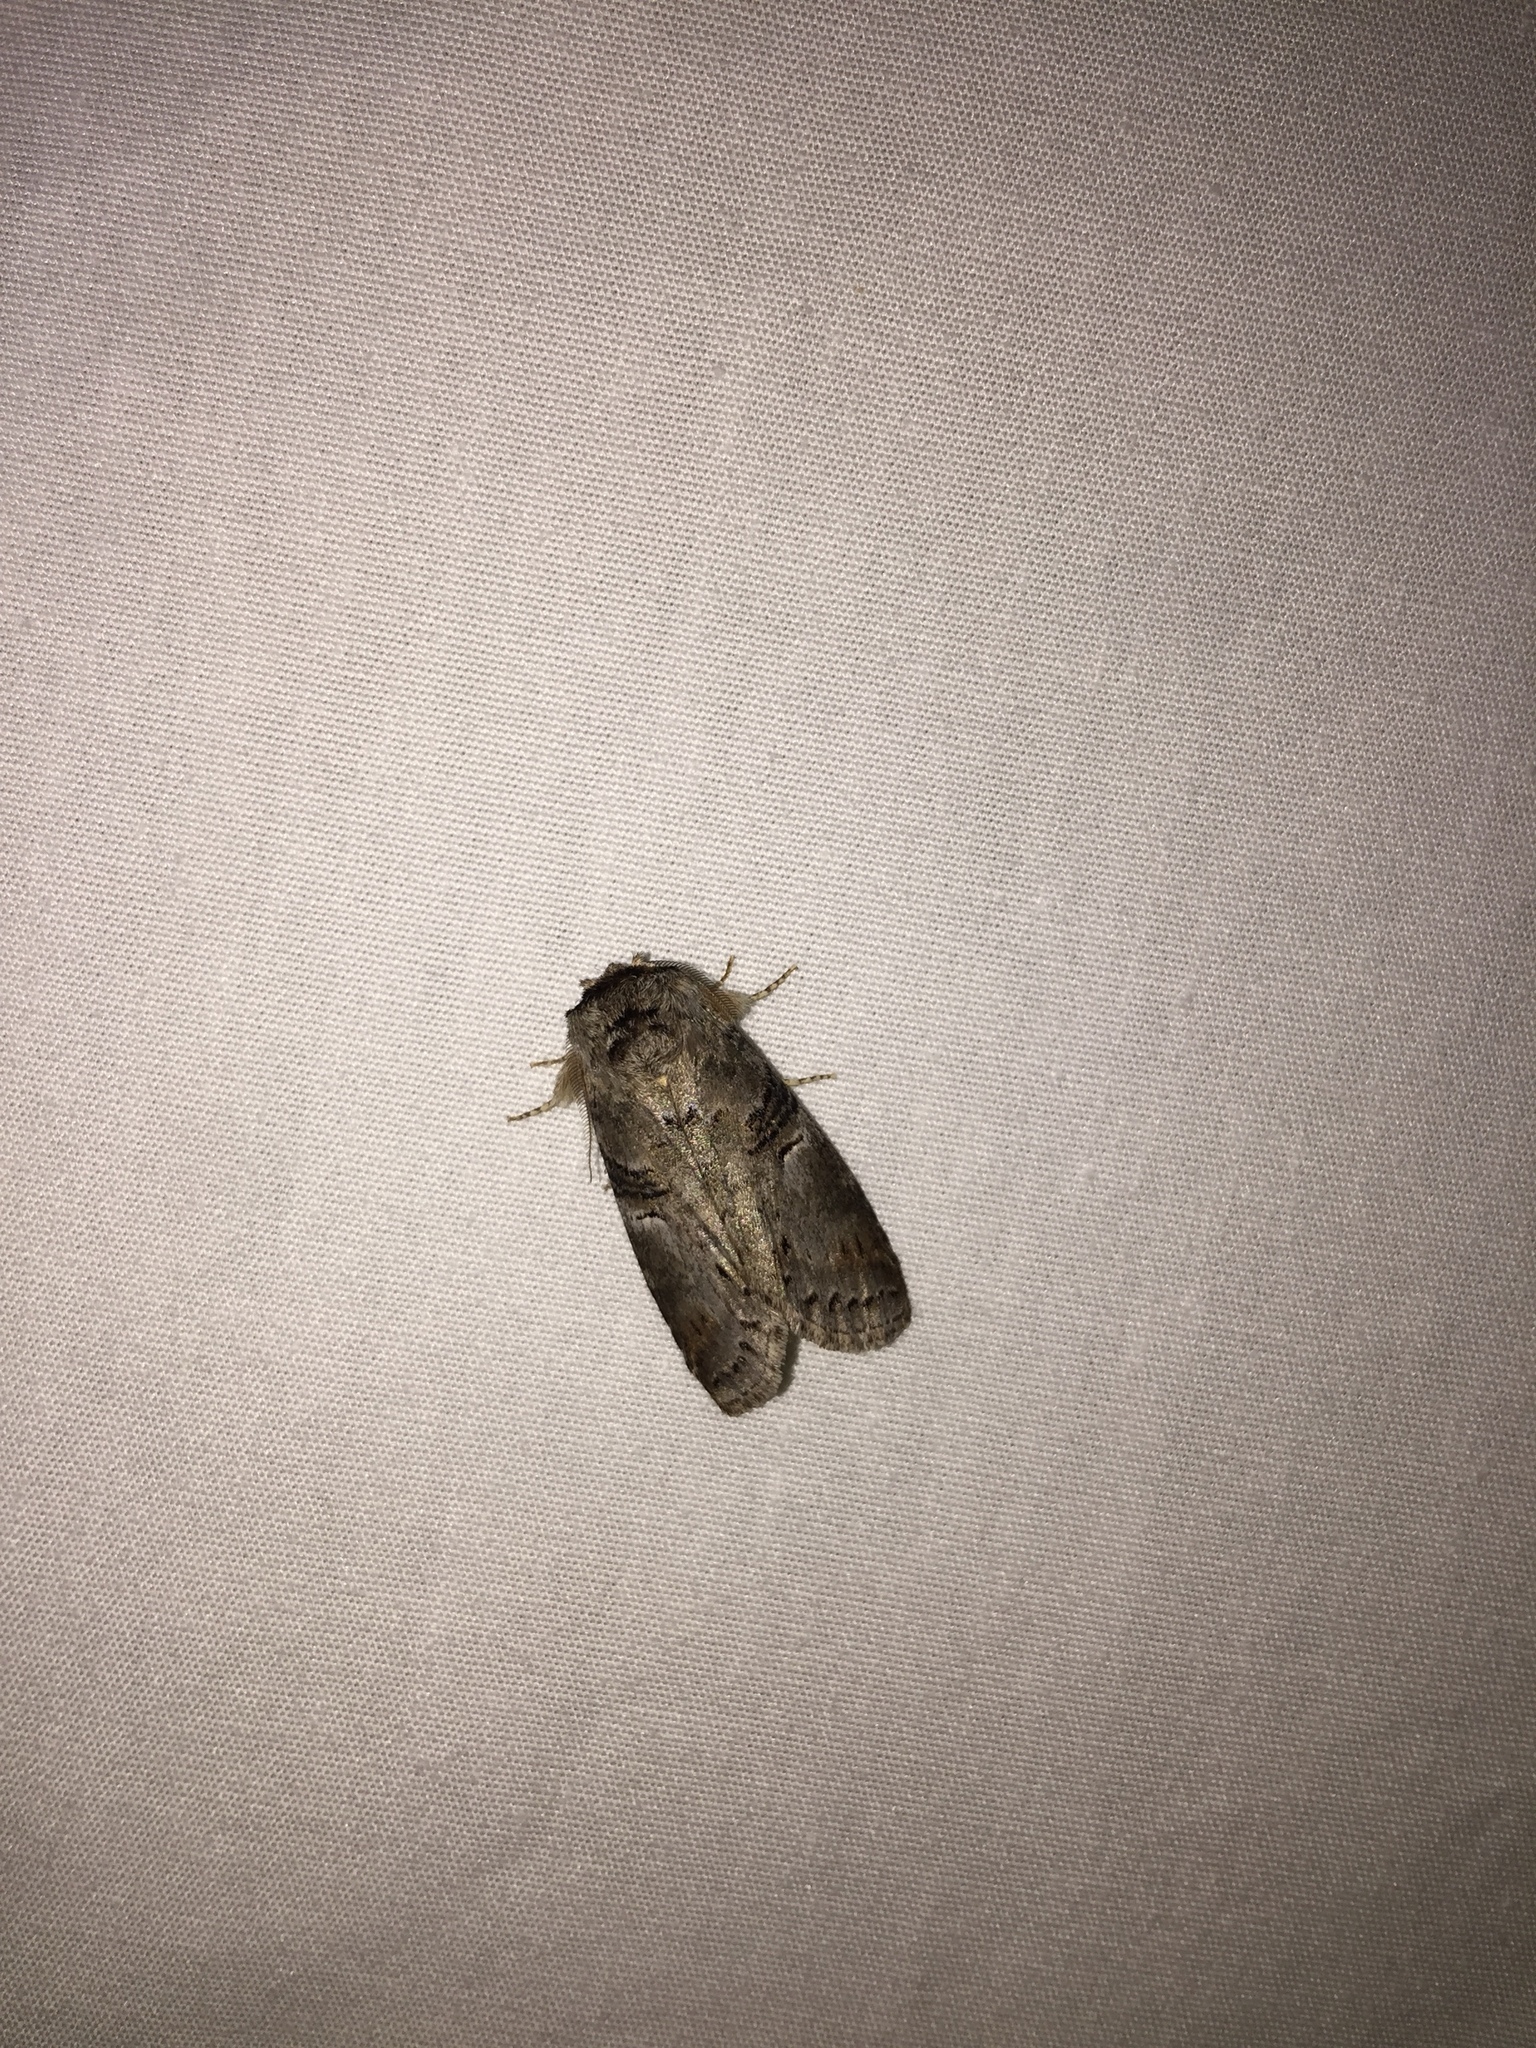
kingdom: Animalia
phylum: Arthropoda
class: Insecta
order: Lepidoptera
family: Notodontidae
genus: Ellida
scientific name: Ellida caniplaga
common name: Linden prominent
